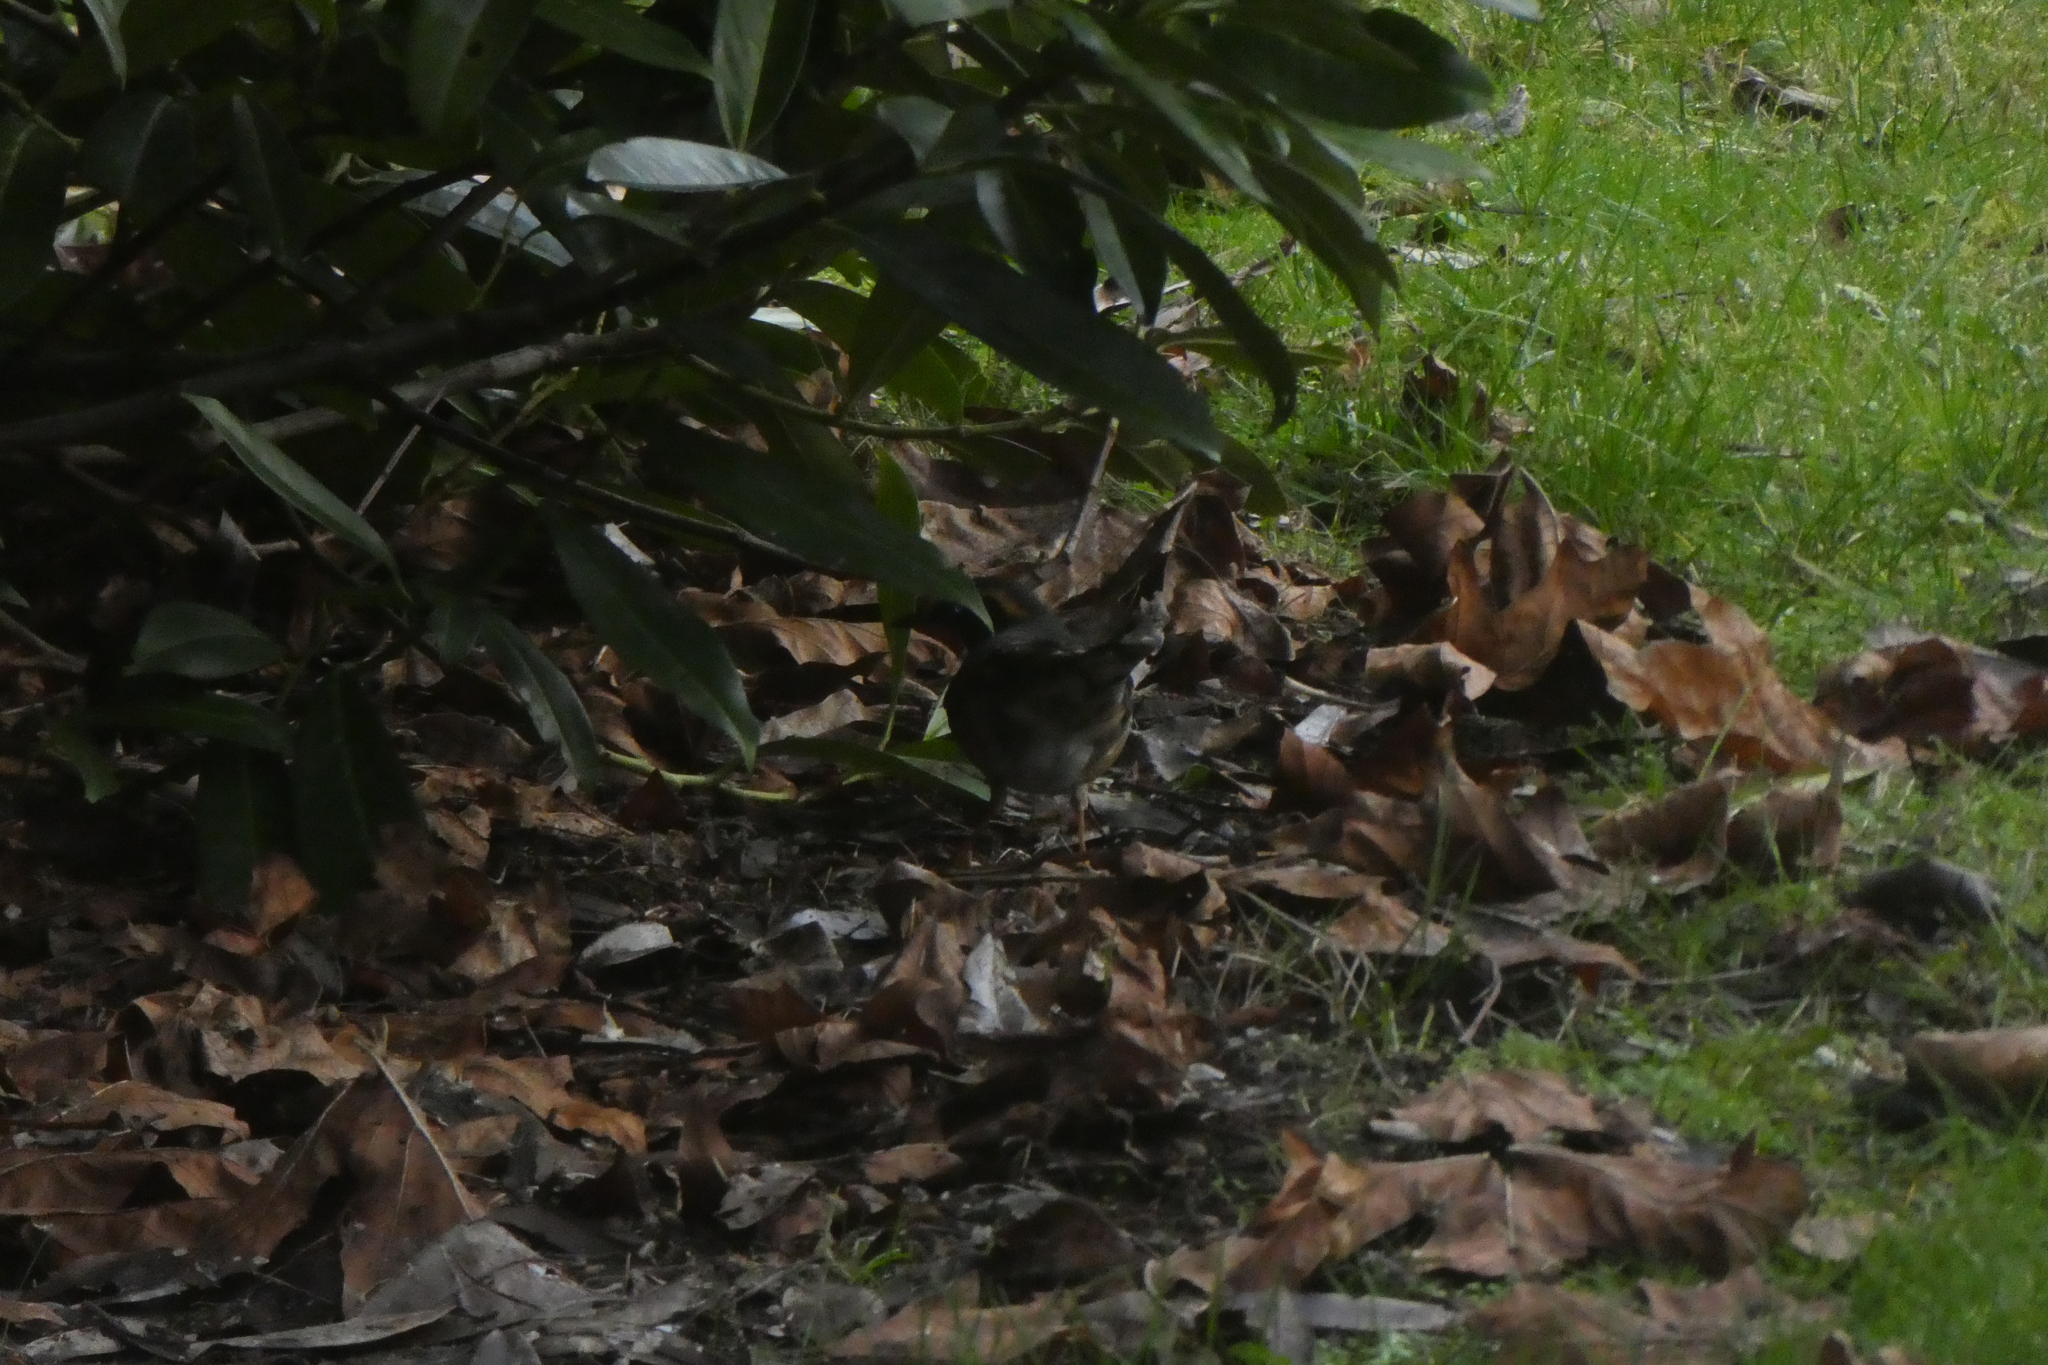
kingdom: Animalia
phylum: Chordata
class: Aves
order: Passeriformes
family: Turdidae
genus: Ixoreus
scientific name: Ixoreus naevius
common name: Varied thrush
